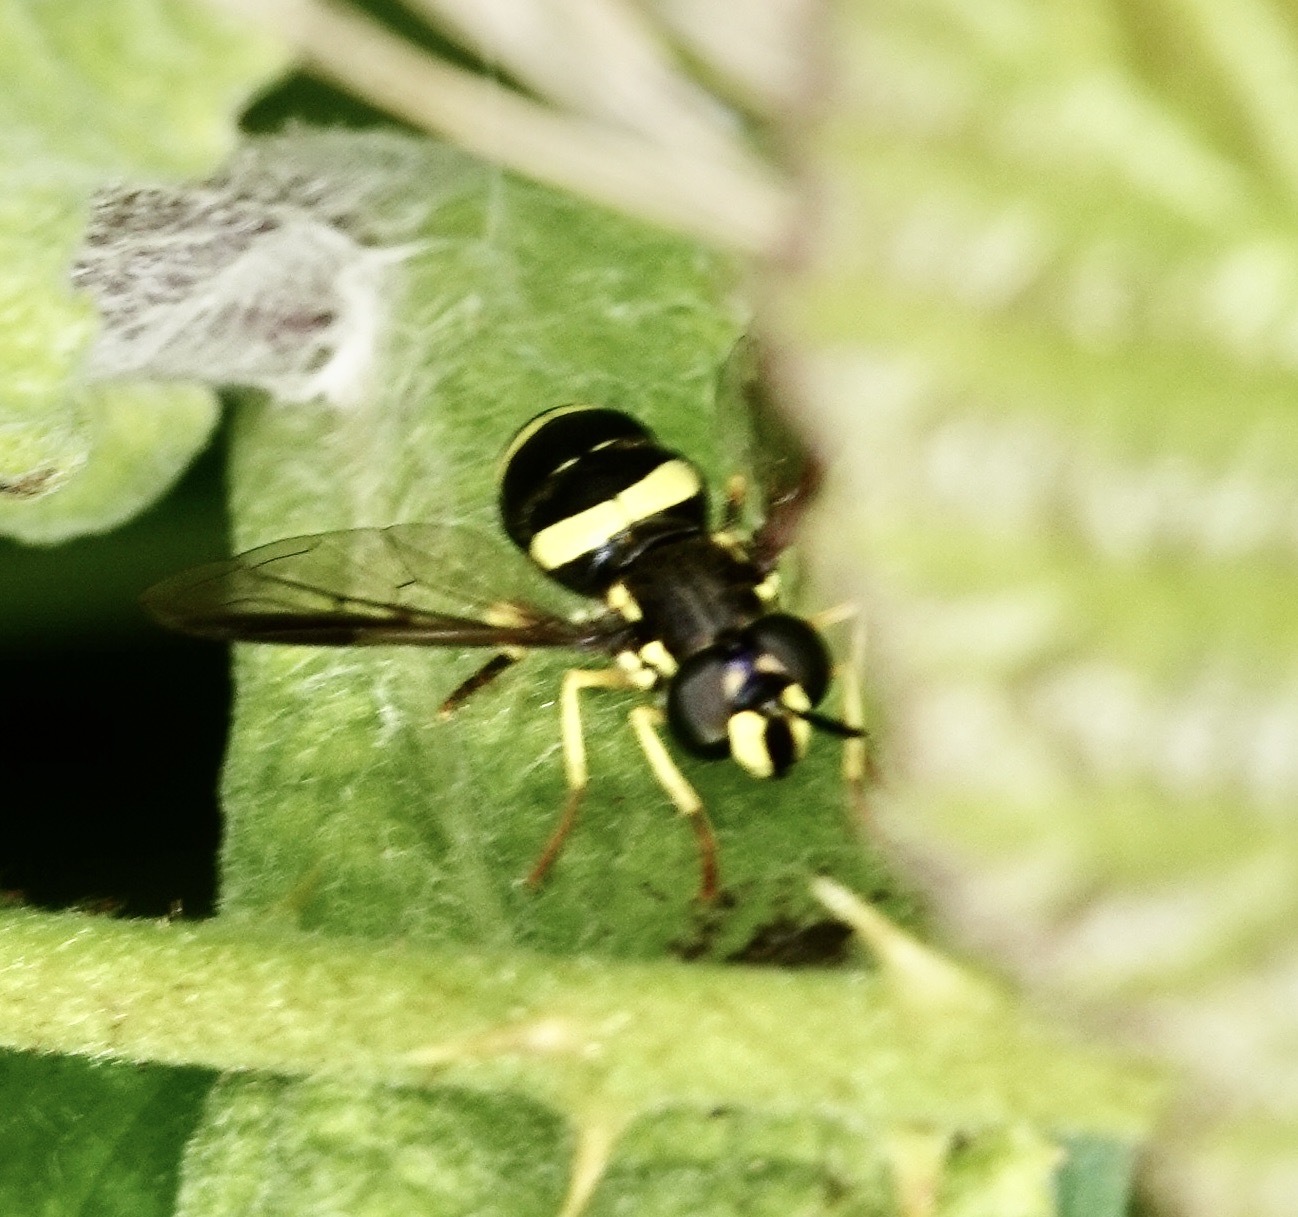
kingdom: Animalia
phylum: Arthropoda
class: Insecta
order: Diptera
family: Syrphidae
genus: Chrysotoxum
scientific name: Chrysotoxum bicincta
